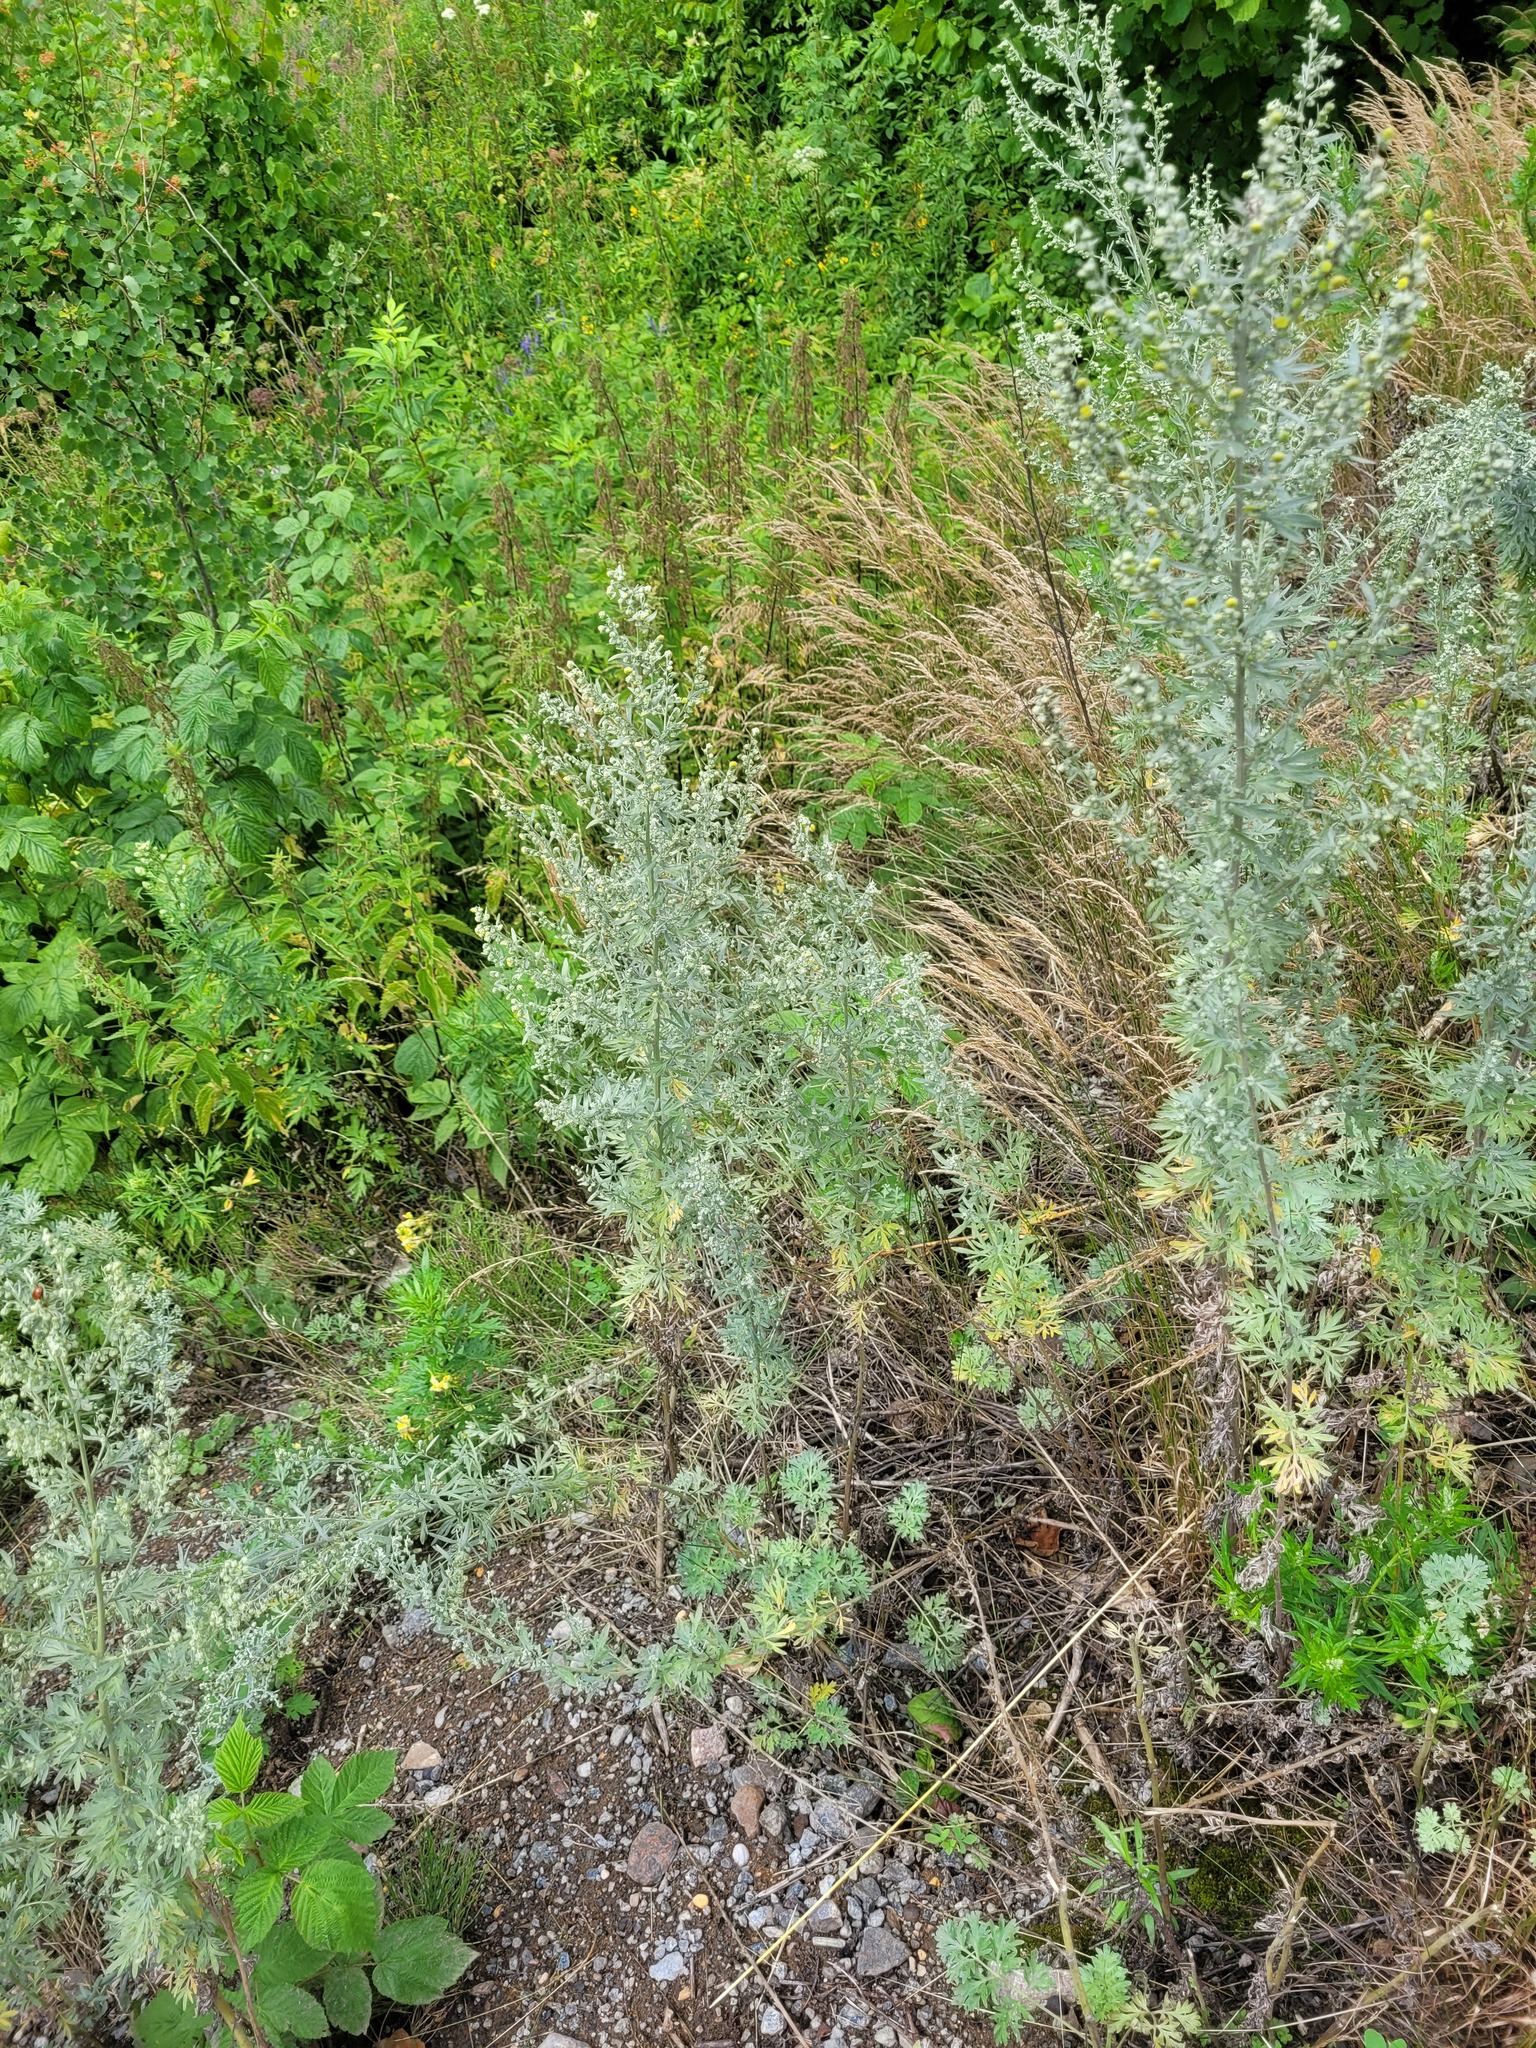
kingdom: Plantae
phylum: Tracheophyta
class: Magnoliopsida
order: Asterales
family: Asteraceae
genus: Artemisia
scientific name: Artemisia absinthium
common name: Wormwood
